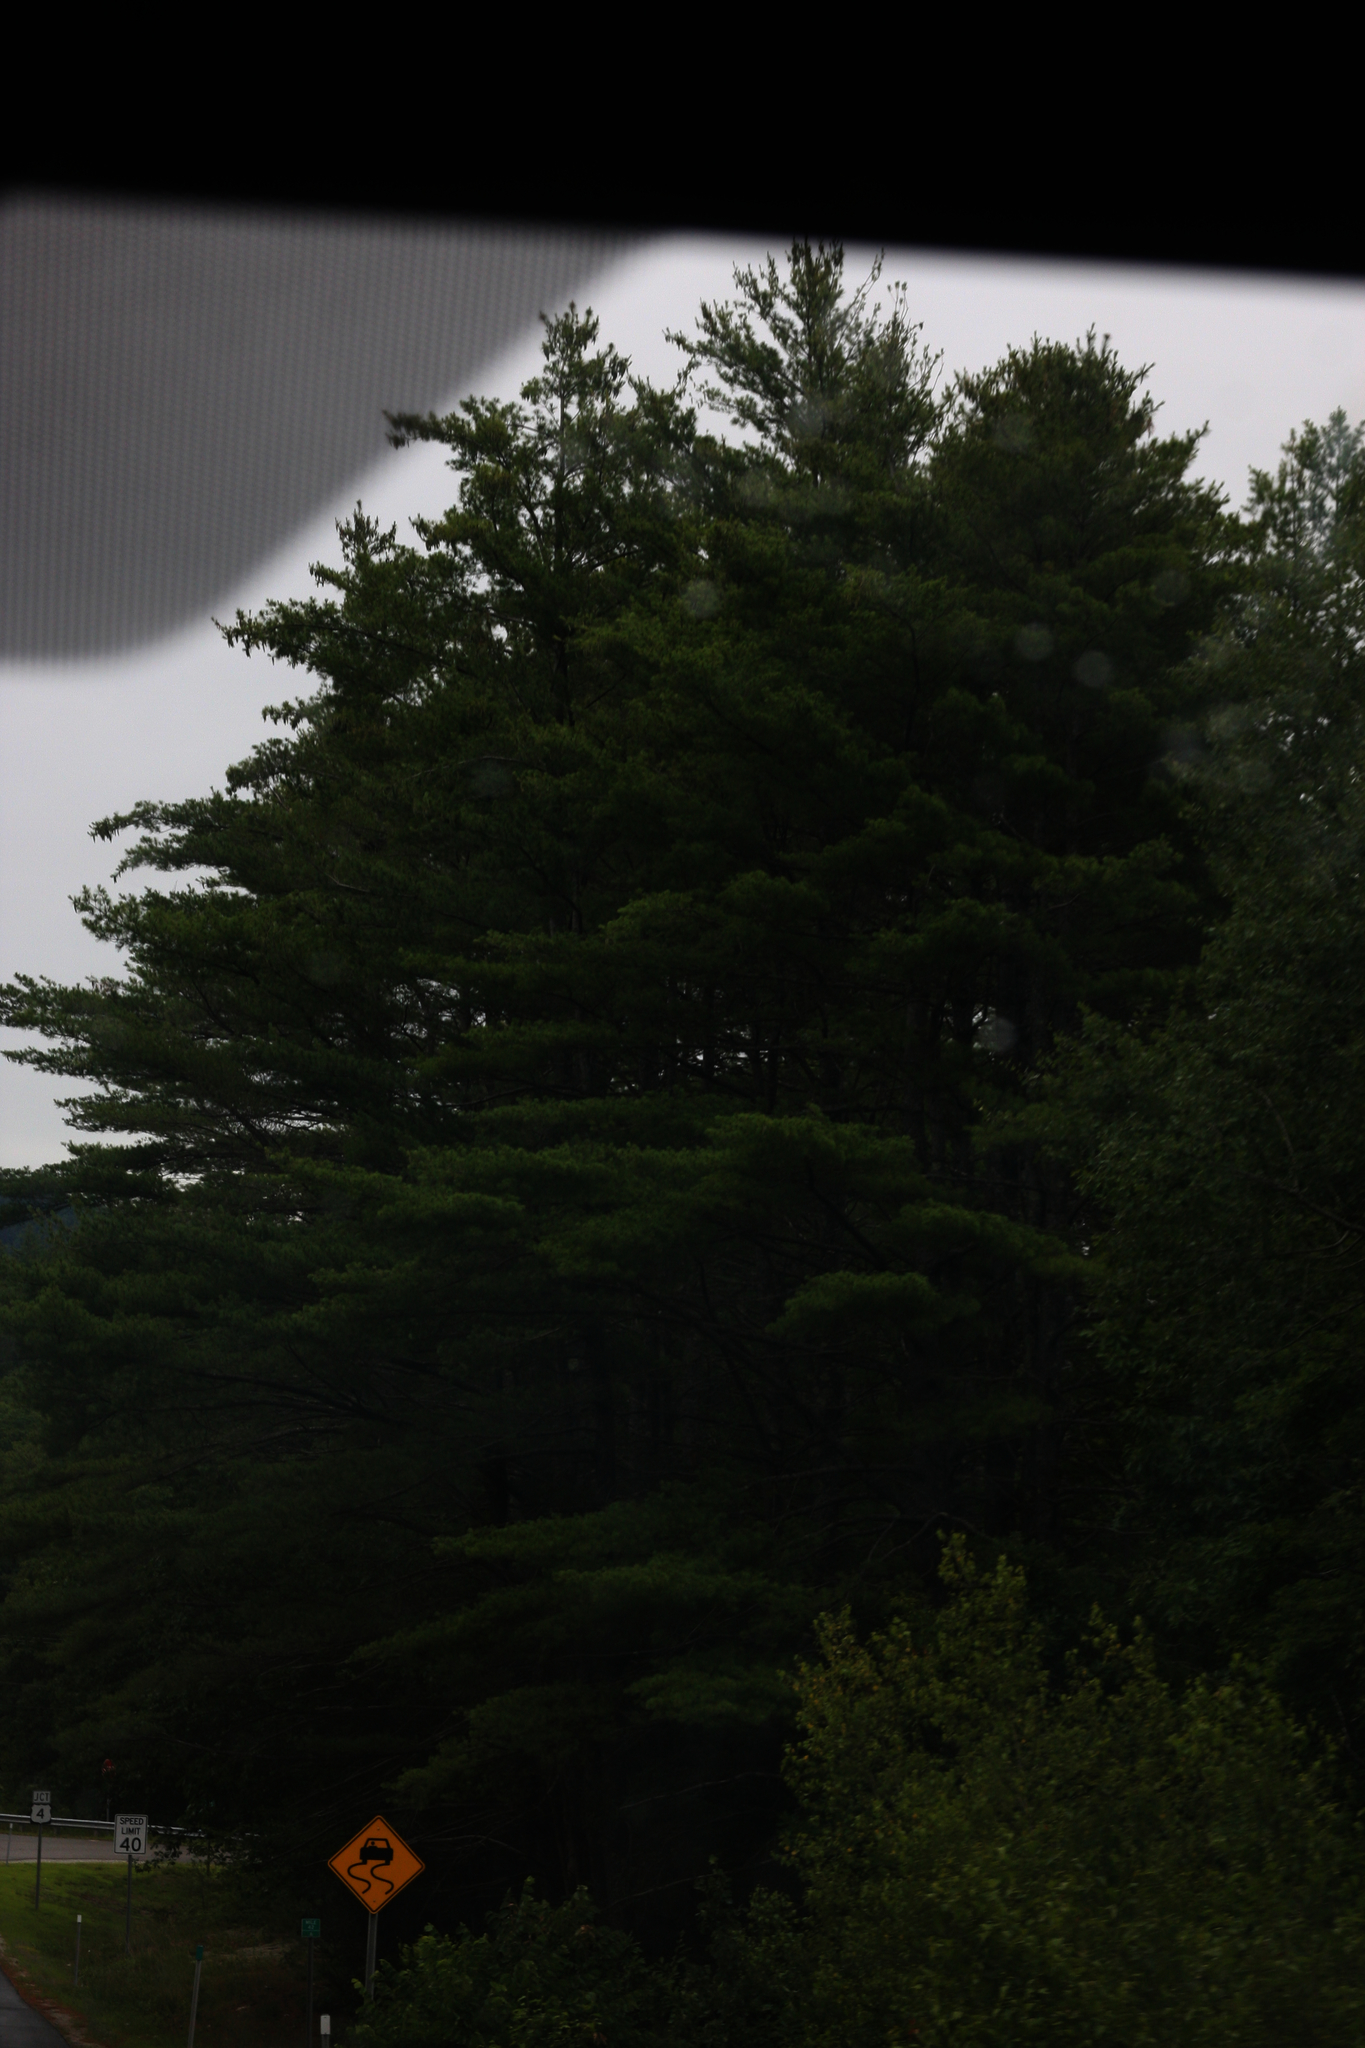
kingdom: Plantae
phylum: Tracheophyta
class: Pinopsida
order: Pinales
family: Pinaceae
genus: Pinus
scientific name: Pinus strobus
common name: Weymouth pine
